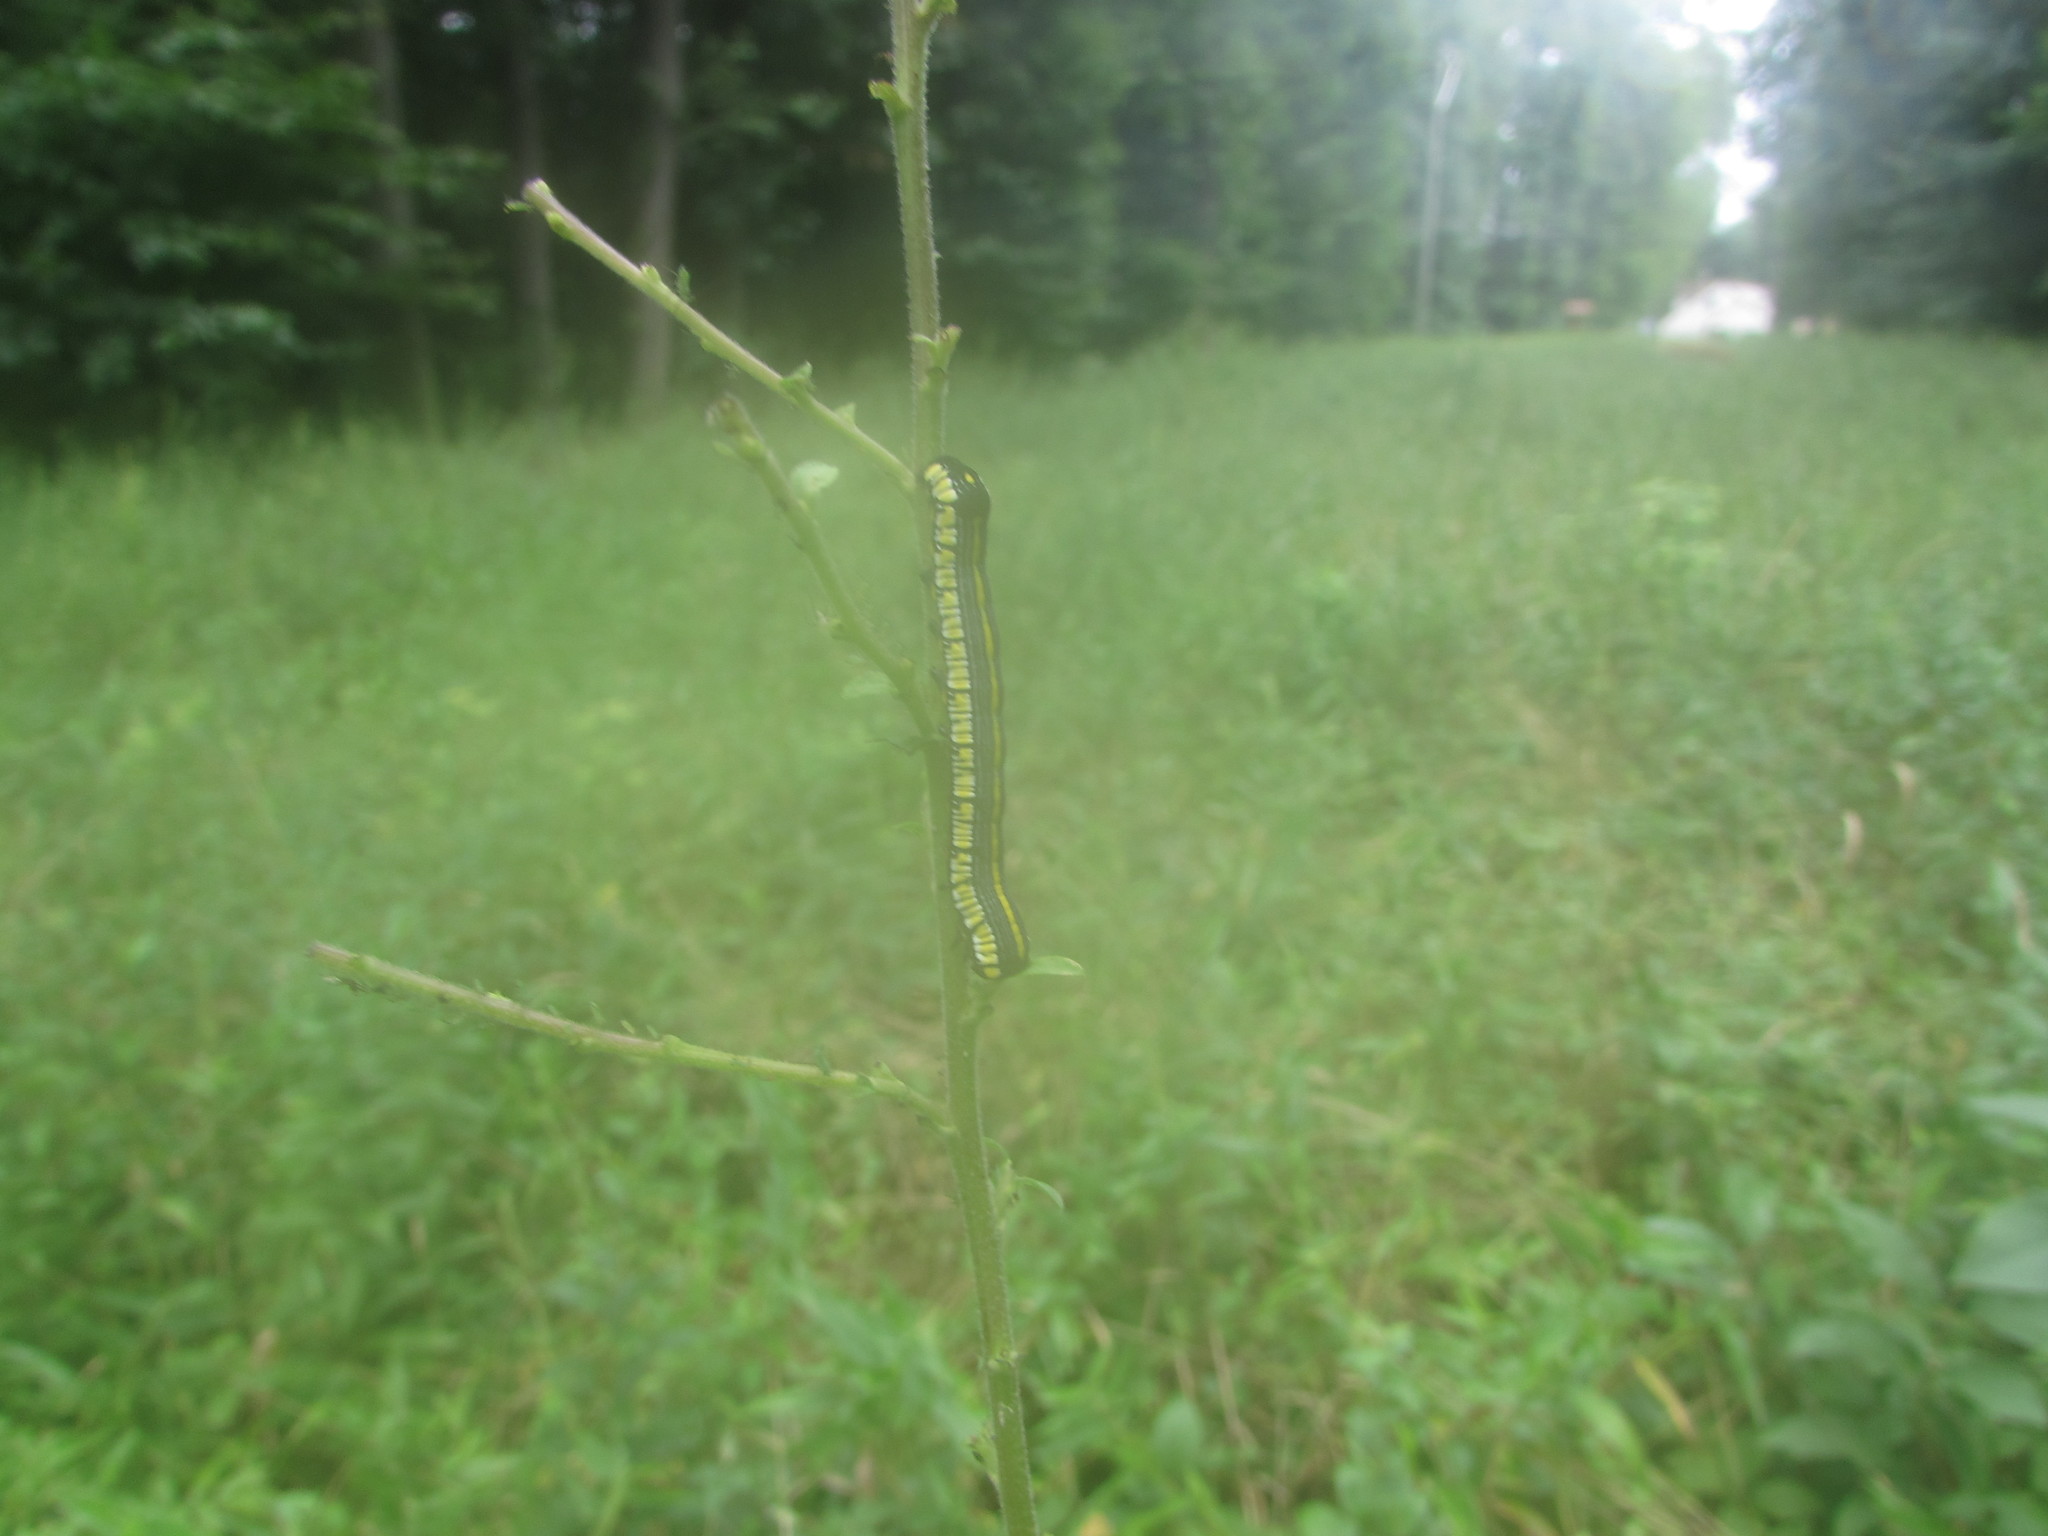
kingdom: Animalia
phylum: Arthropoda
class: Insecta
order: Lepidoptera
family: Noctuidae
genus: Cucullia
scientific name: Cucullia convexipennis
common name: Brown-hooded owlet
